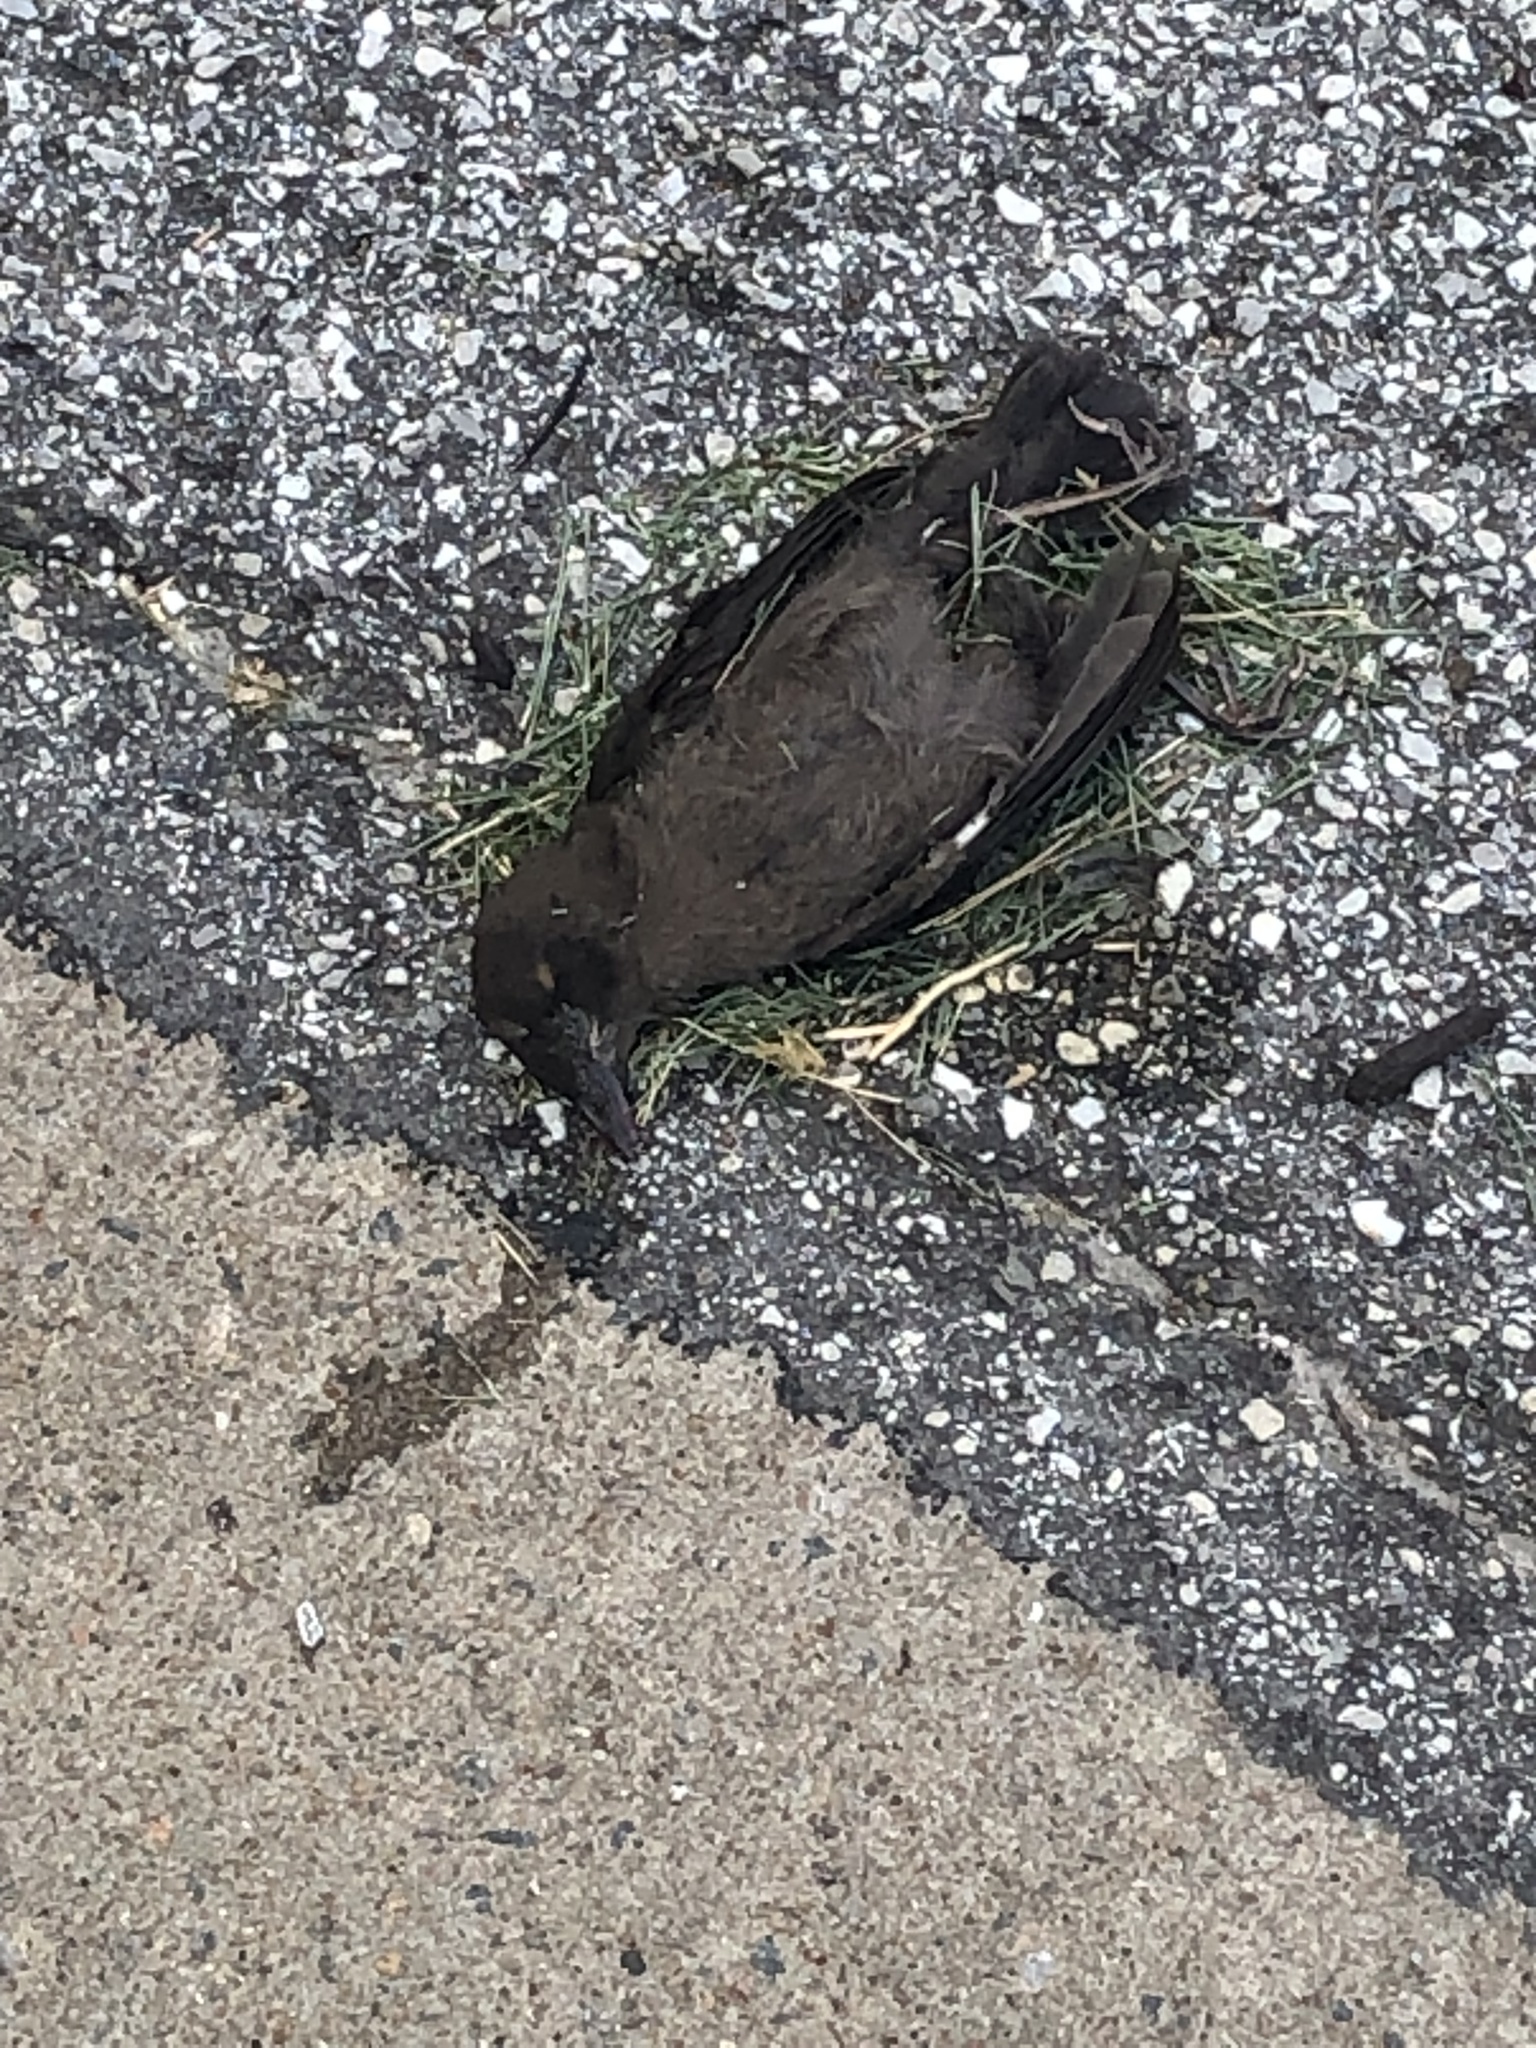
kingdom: Animalia
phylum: Chordata
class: Aves
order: Passeriformes
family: Icteridae
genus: Quiscalus
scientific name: Quiscalus quiscula
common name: Common grackle
